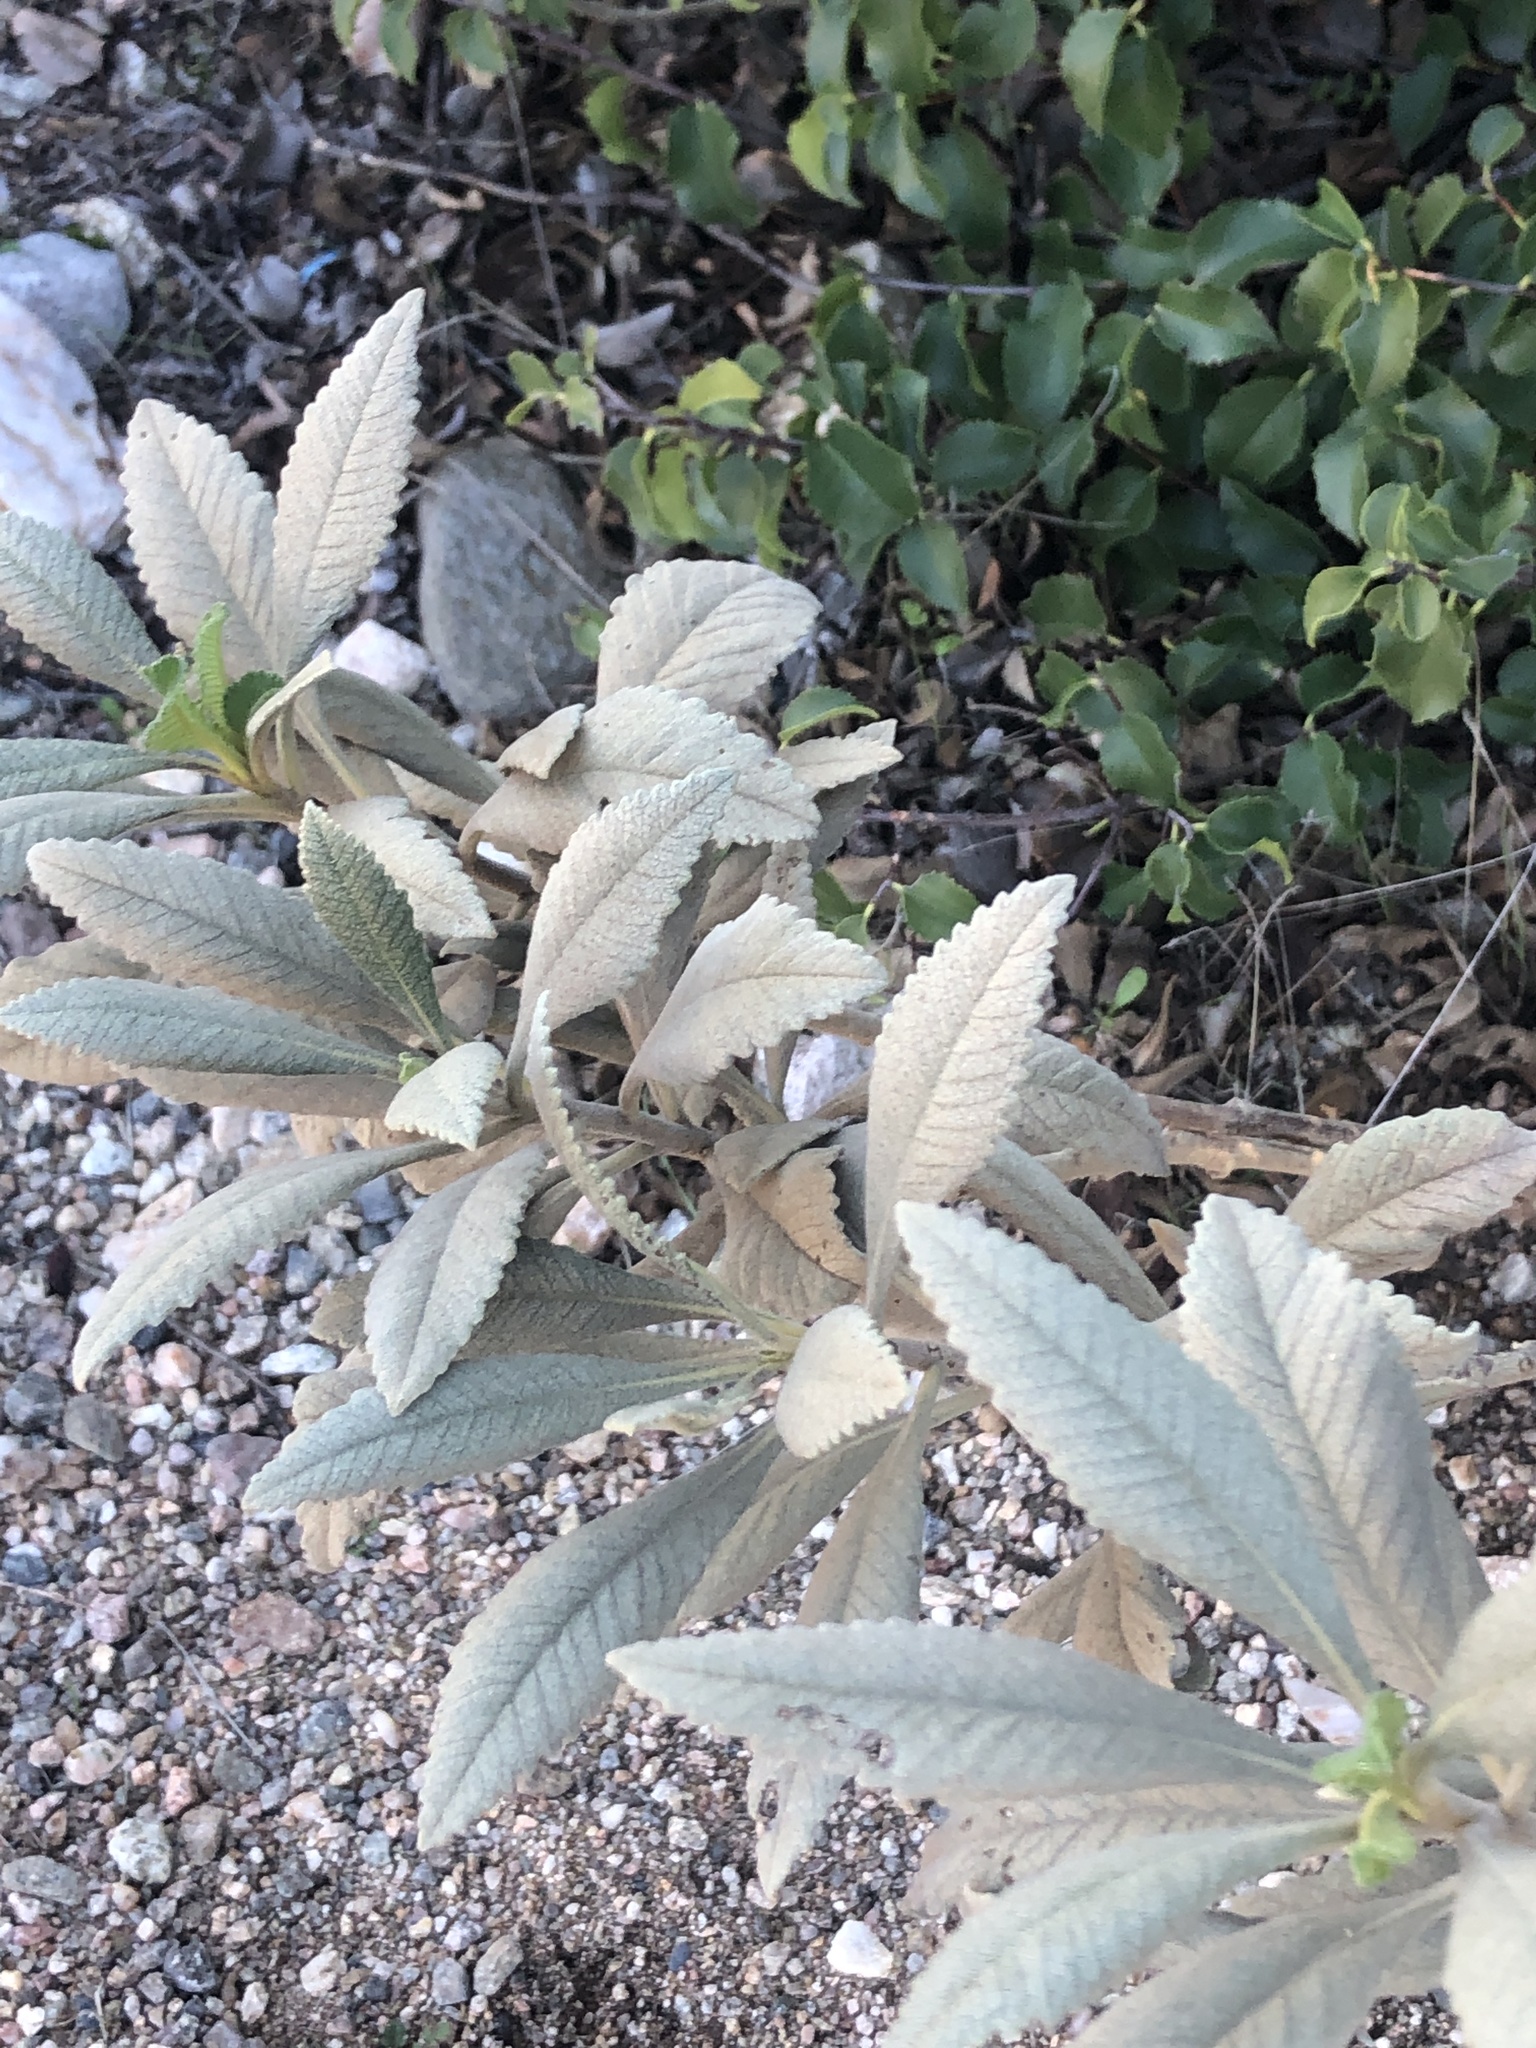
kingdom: Plantae
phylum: Tracheophyta
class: Magnoliopsida
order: Boraginales
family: Namaceae
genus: Eriodictyon
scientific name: Eriodictyon crassifolium
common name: Thick-leaf yerba-santa
